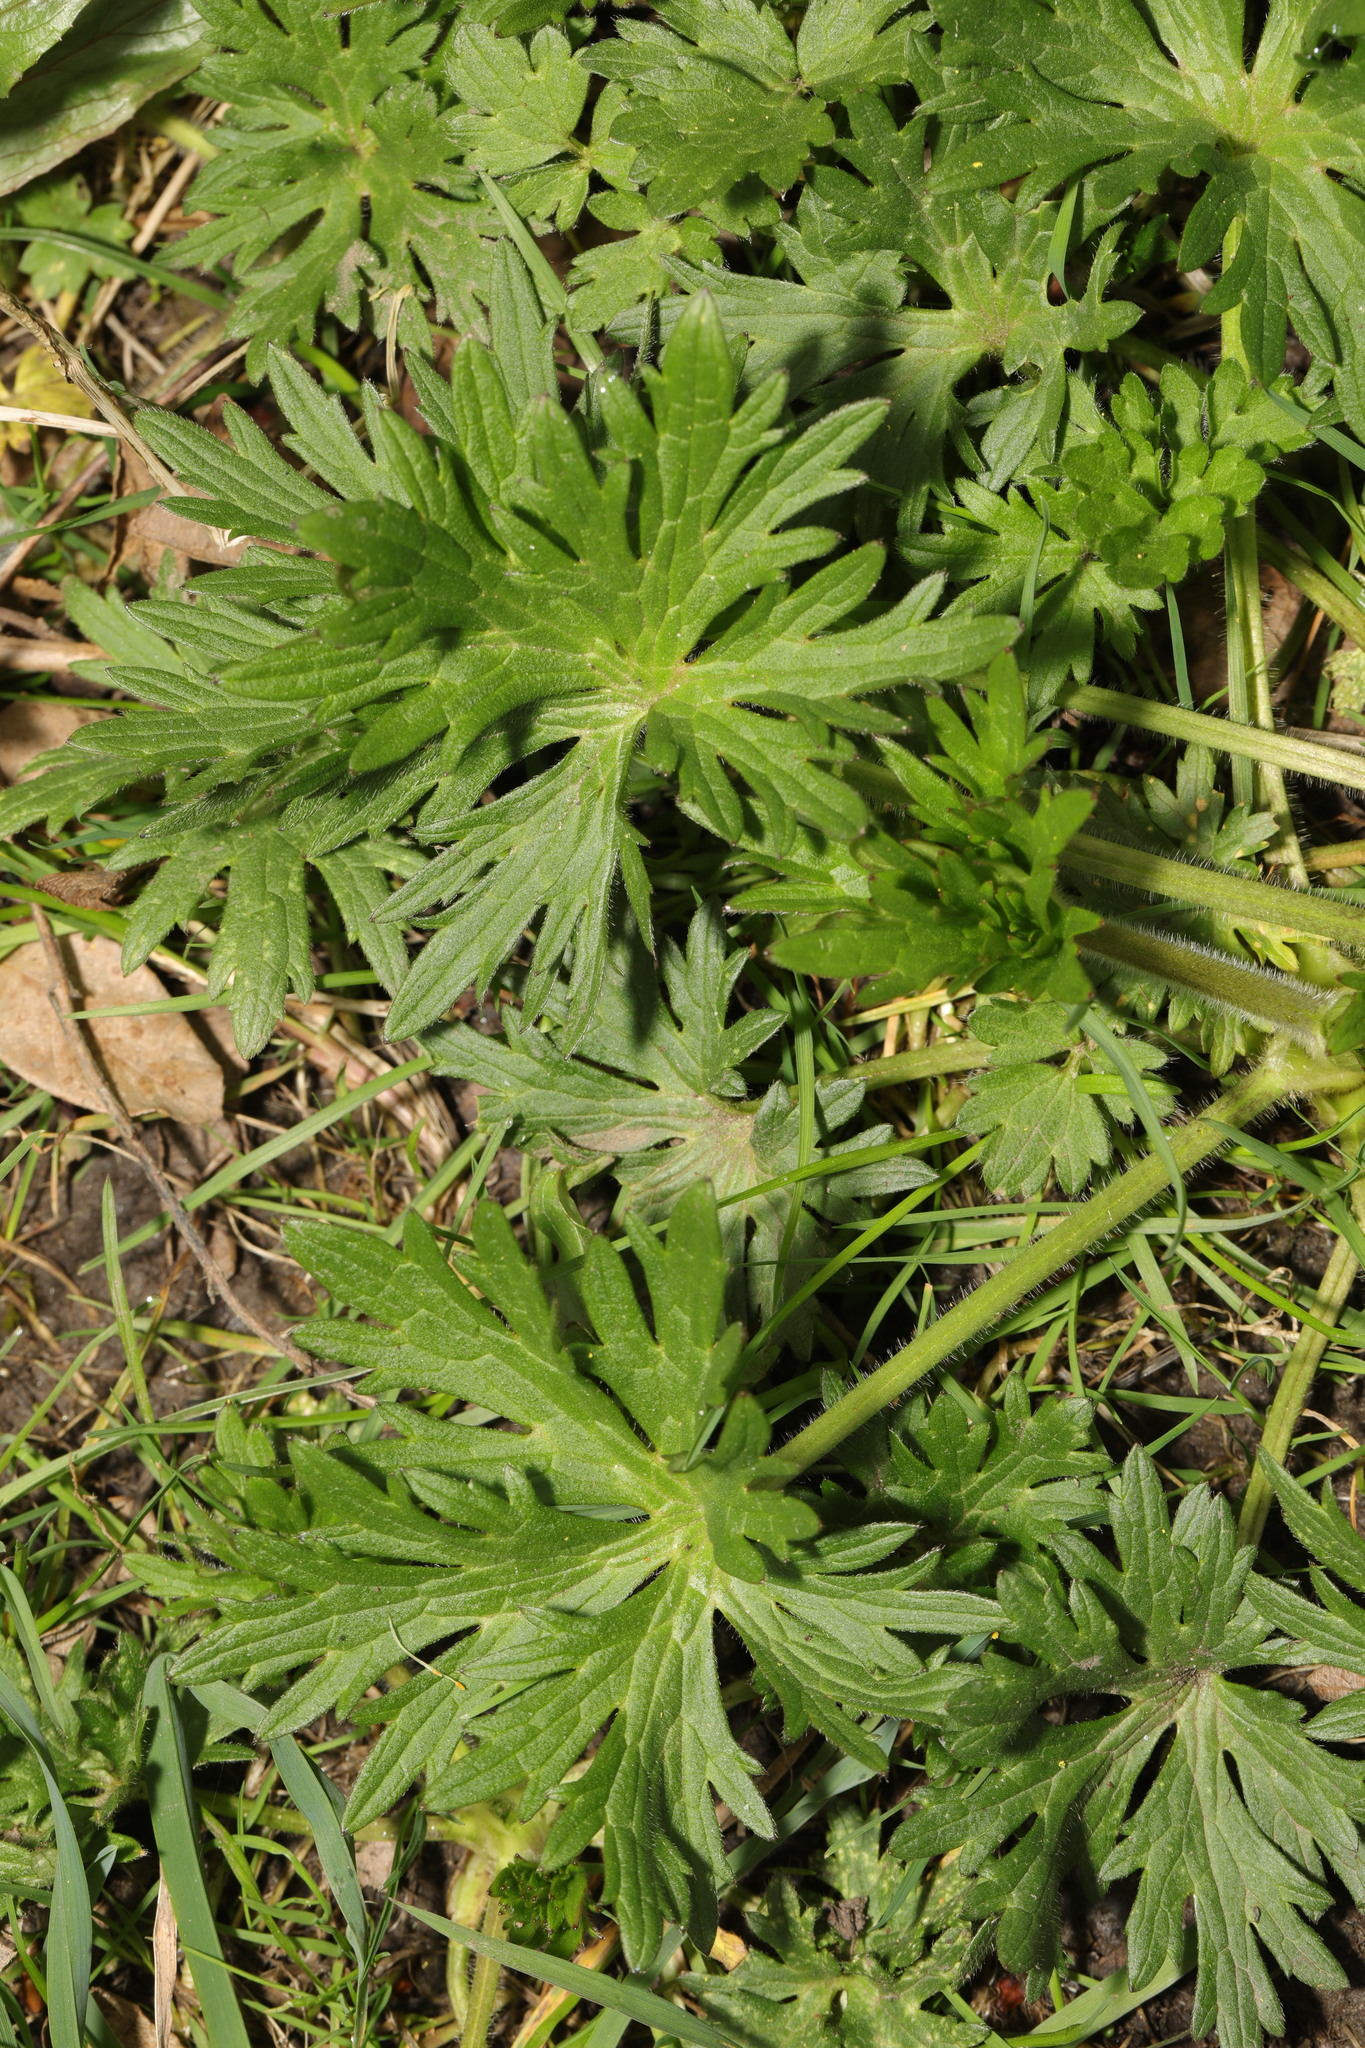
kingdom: Plantae
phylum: Tracheophyta
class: Magnoliopsida
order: Ranunculales
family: Ranunculaceae
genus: Ranunculus
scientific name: Ranunculus acris
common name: Meadow buttercup
